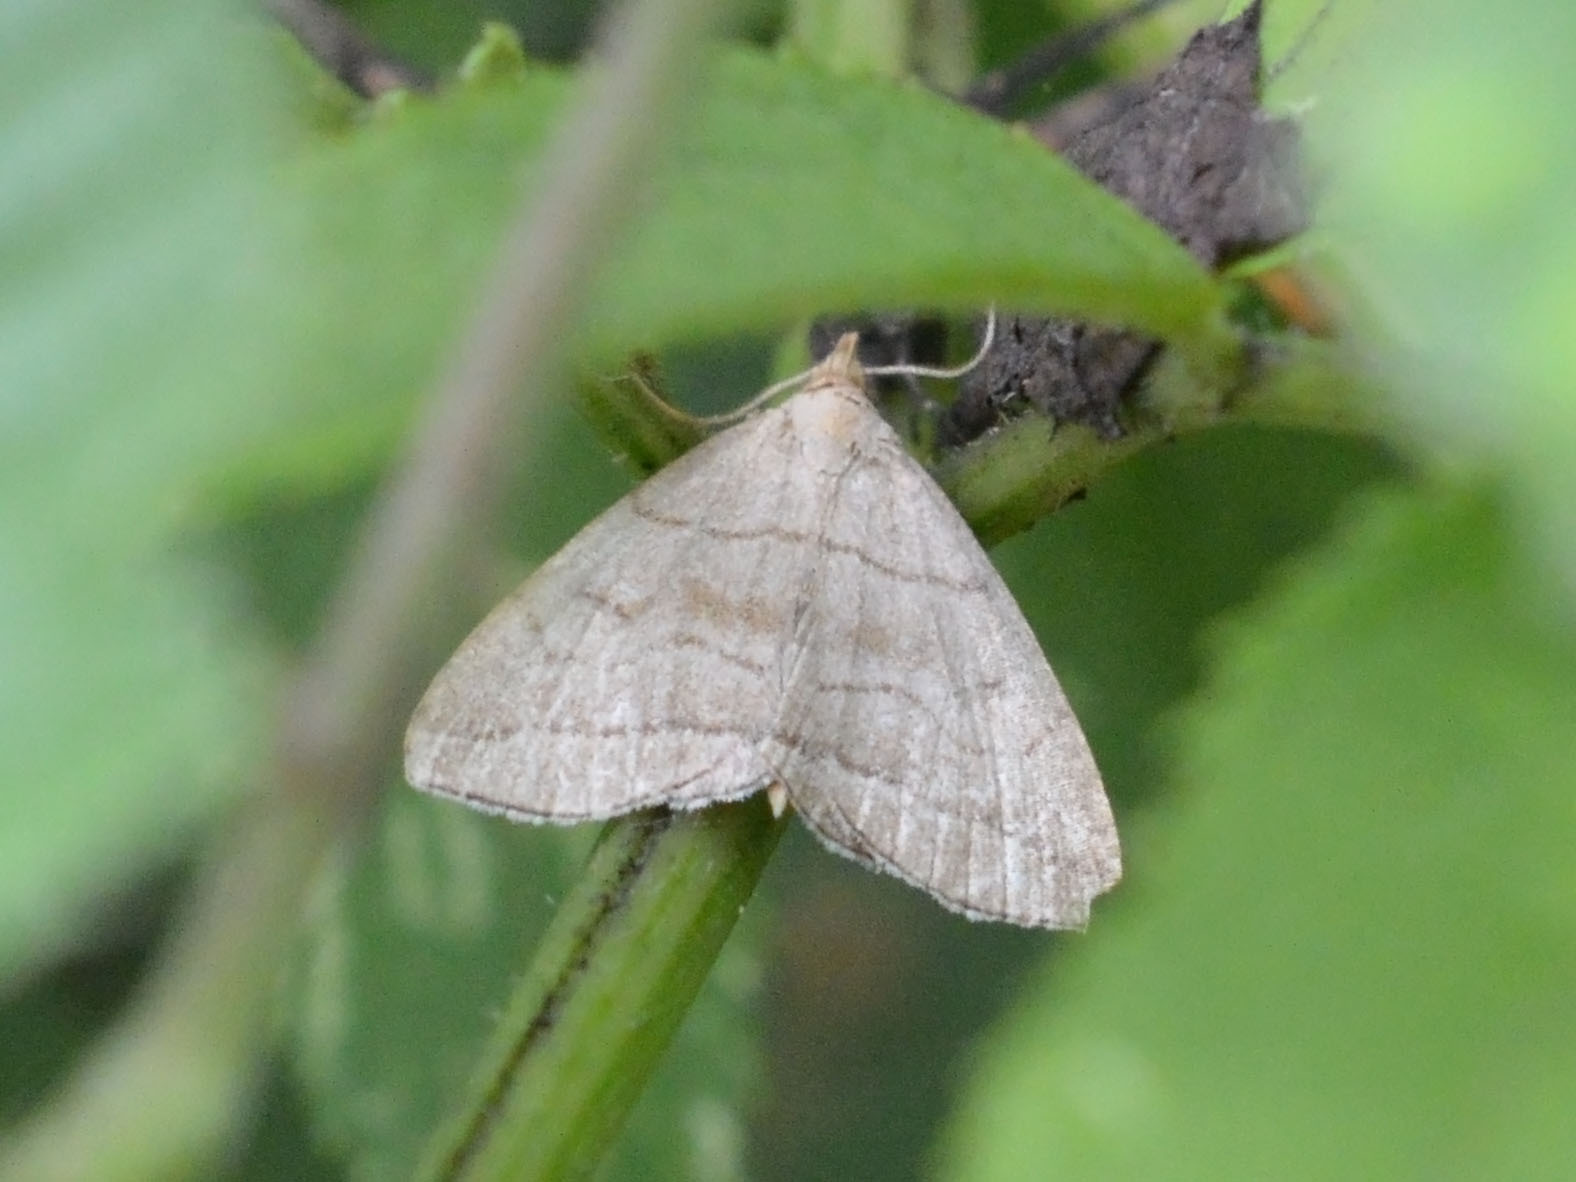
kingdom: Animalia
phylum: Arthropoda
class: Insecta
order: Lepidoptera
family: Erebidae
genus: Herminia
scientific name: Herminia tarsicrinalis
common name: Shaded fan-foot
